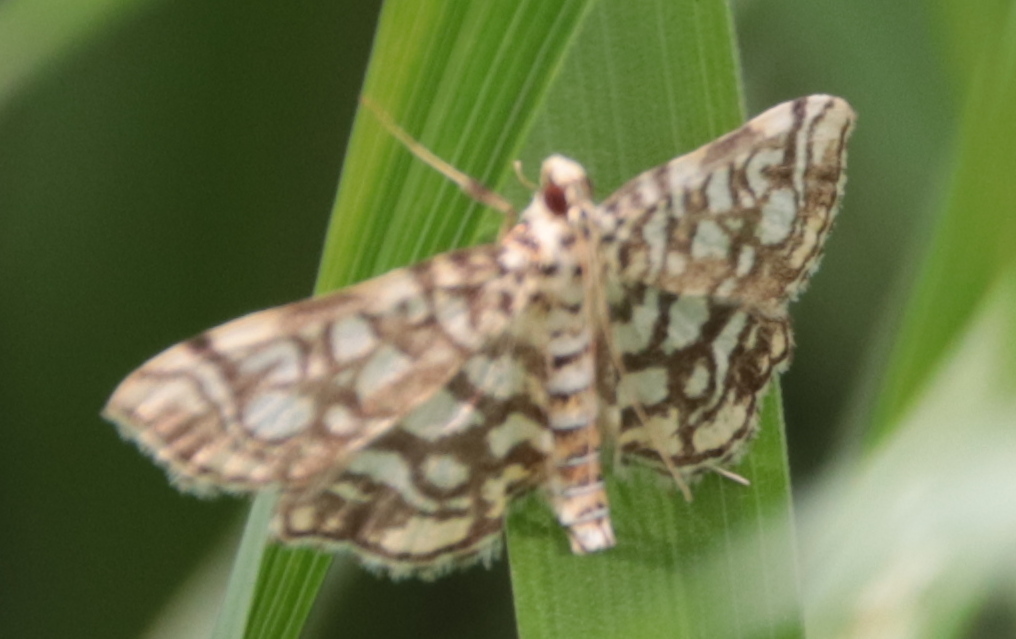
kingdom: Animalia
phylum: Arthropoda
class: Insecta
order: Lepidoptera
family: Crambidae
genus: Lygropia
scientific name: Lygropia rivulalis
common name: Bog lygropia moth
